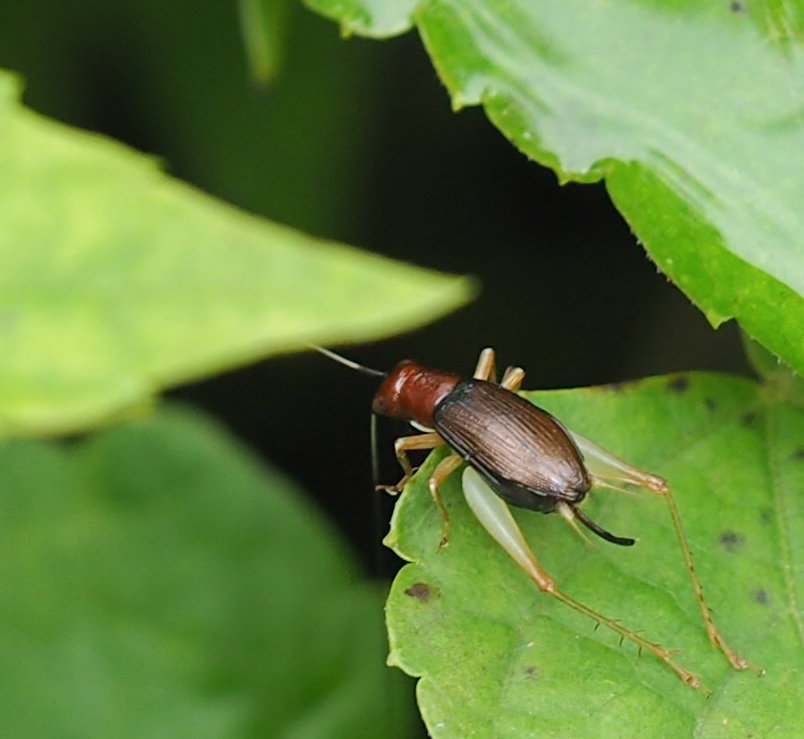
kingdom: Animalia
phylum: Arthropoda
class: Insecta
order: Orthoptera
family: Trigonidiidae
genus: Phyllopalpus
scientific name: Phyllopalpus pulchellus
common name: Handsome trig
